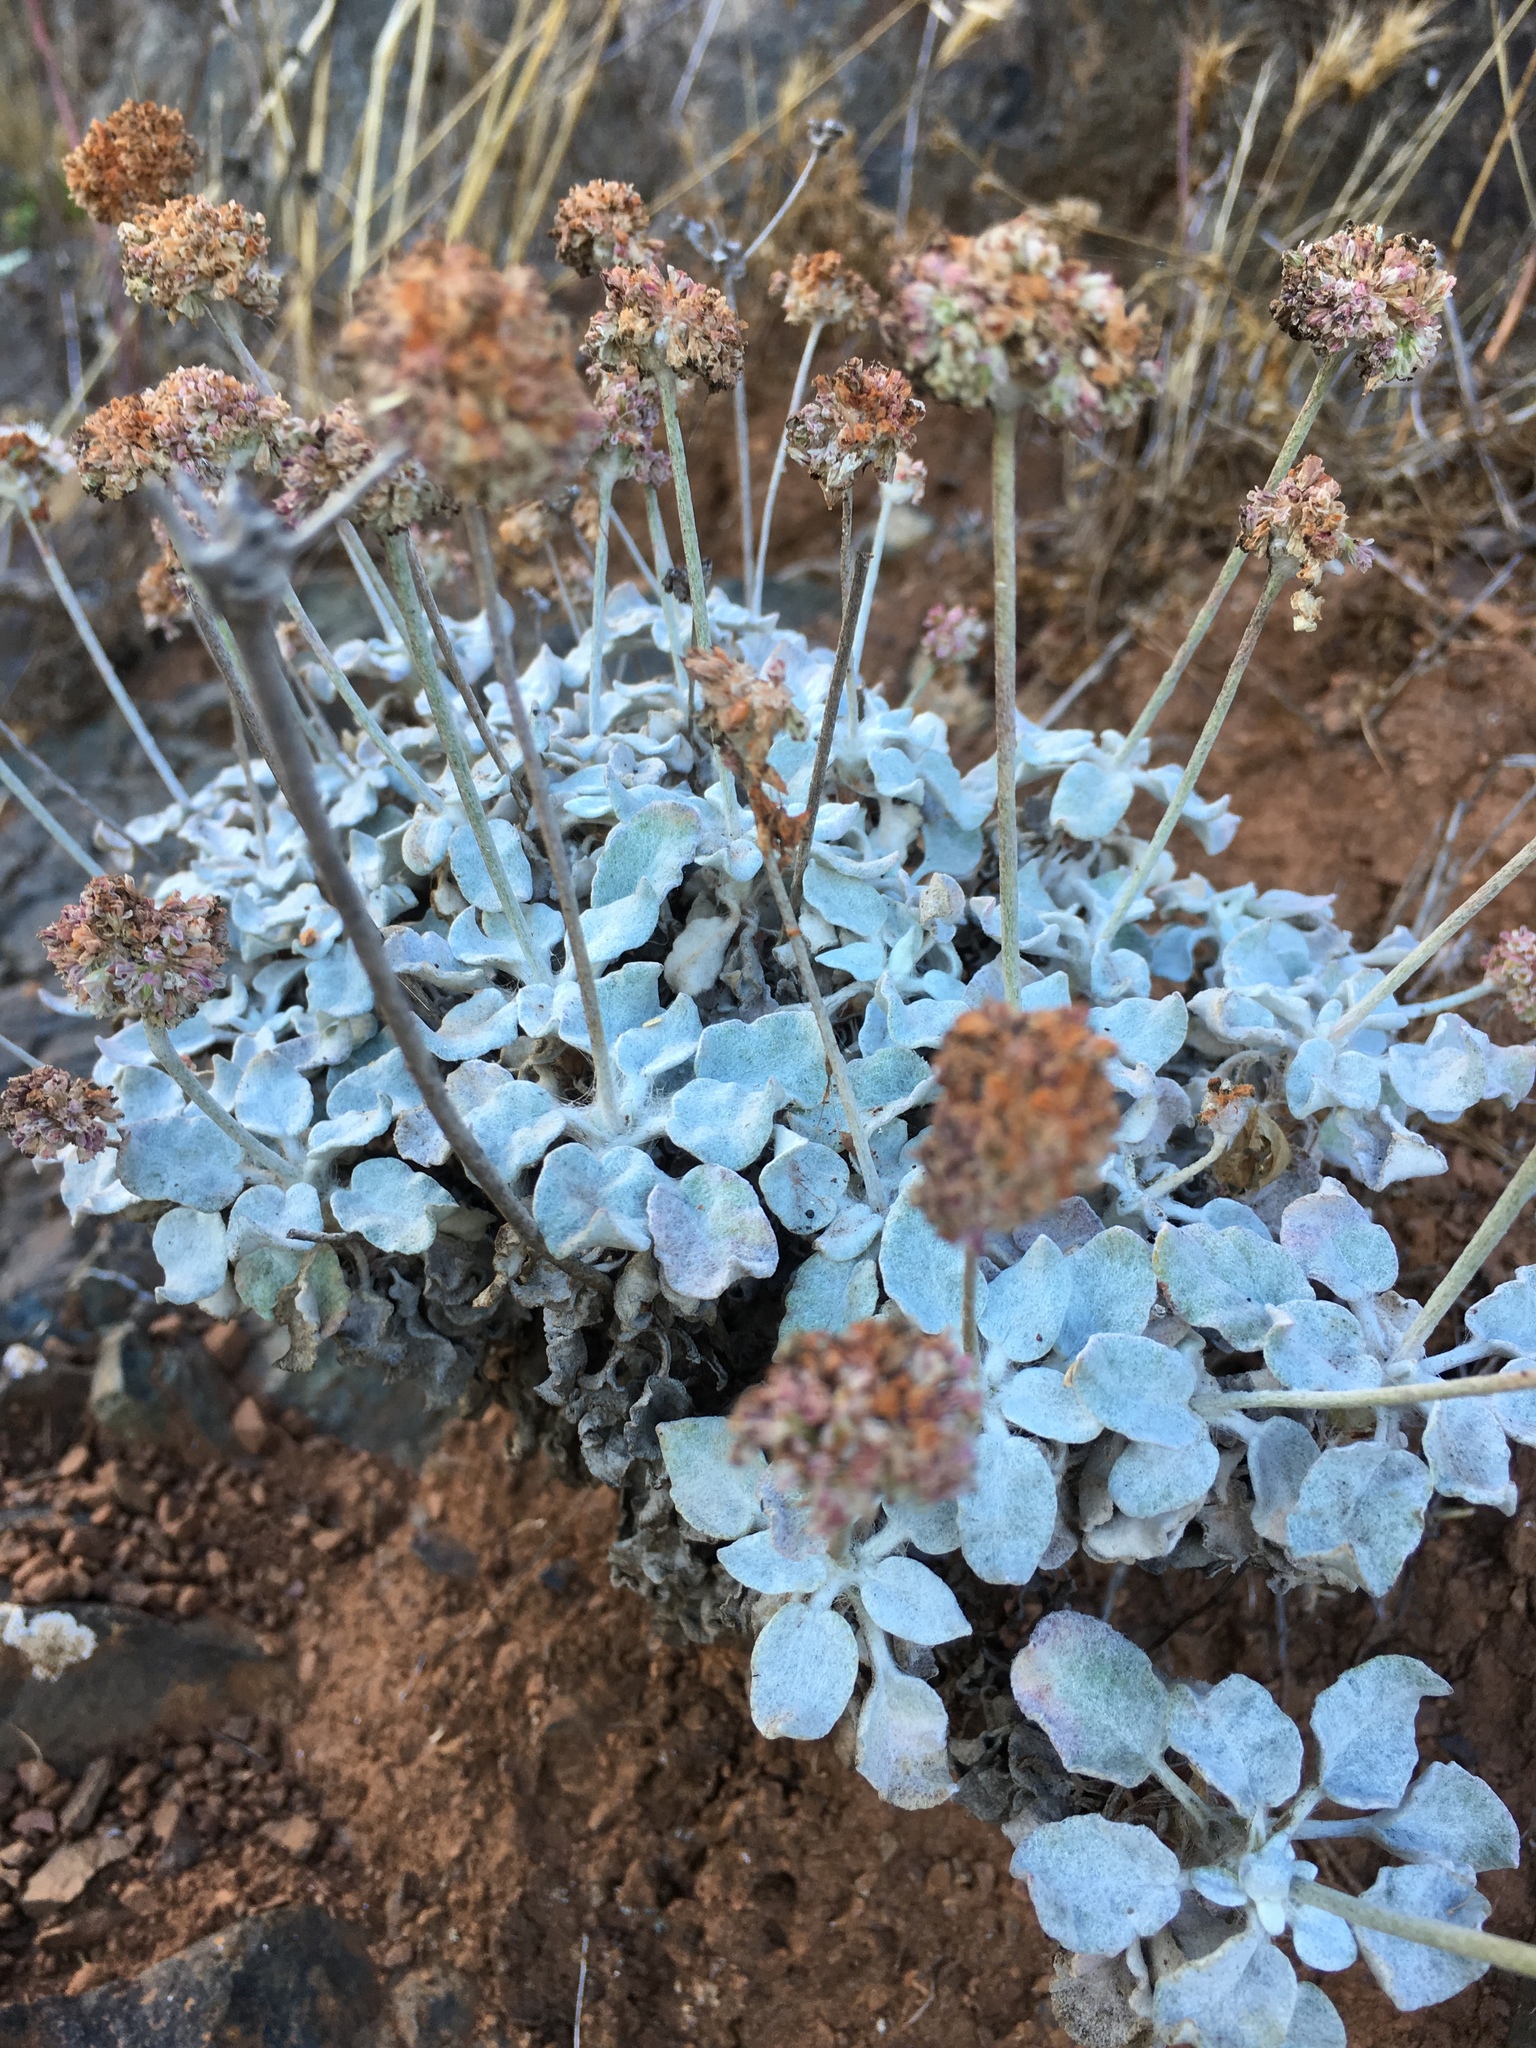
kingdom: Plantae
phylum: Tracheophyta
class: Magnoliopsida
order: Caryophyllales
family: Polygonaceae
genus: Eriogonum
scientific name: Eriogonum latifolium
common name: Seaside wild buckwheat
